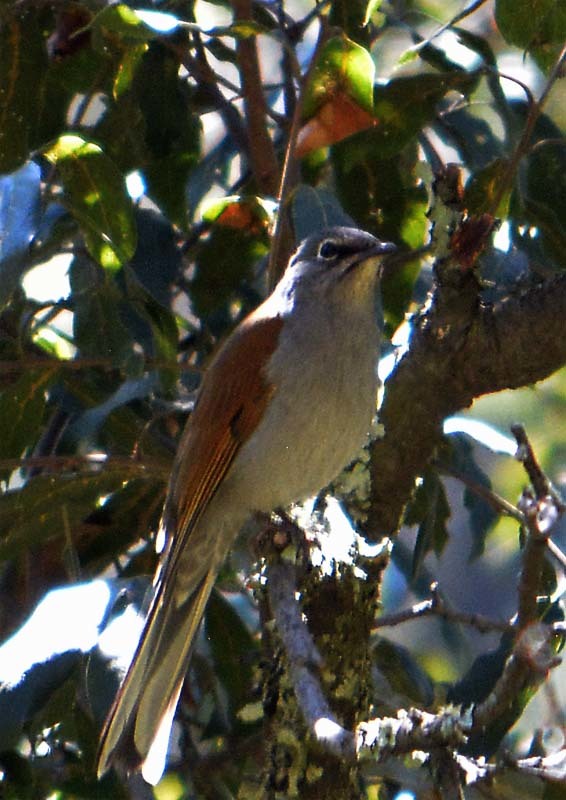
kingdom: Animalia
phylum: Chordata
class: Aves
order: Passeriformes
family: Turdidae
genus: Myadestes
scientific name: Myadestes occidentalis
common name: Brown-backed solitaire
